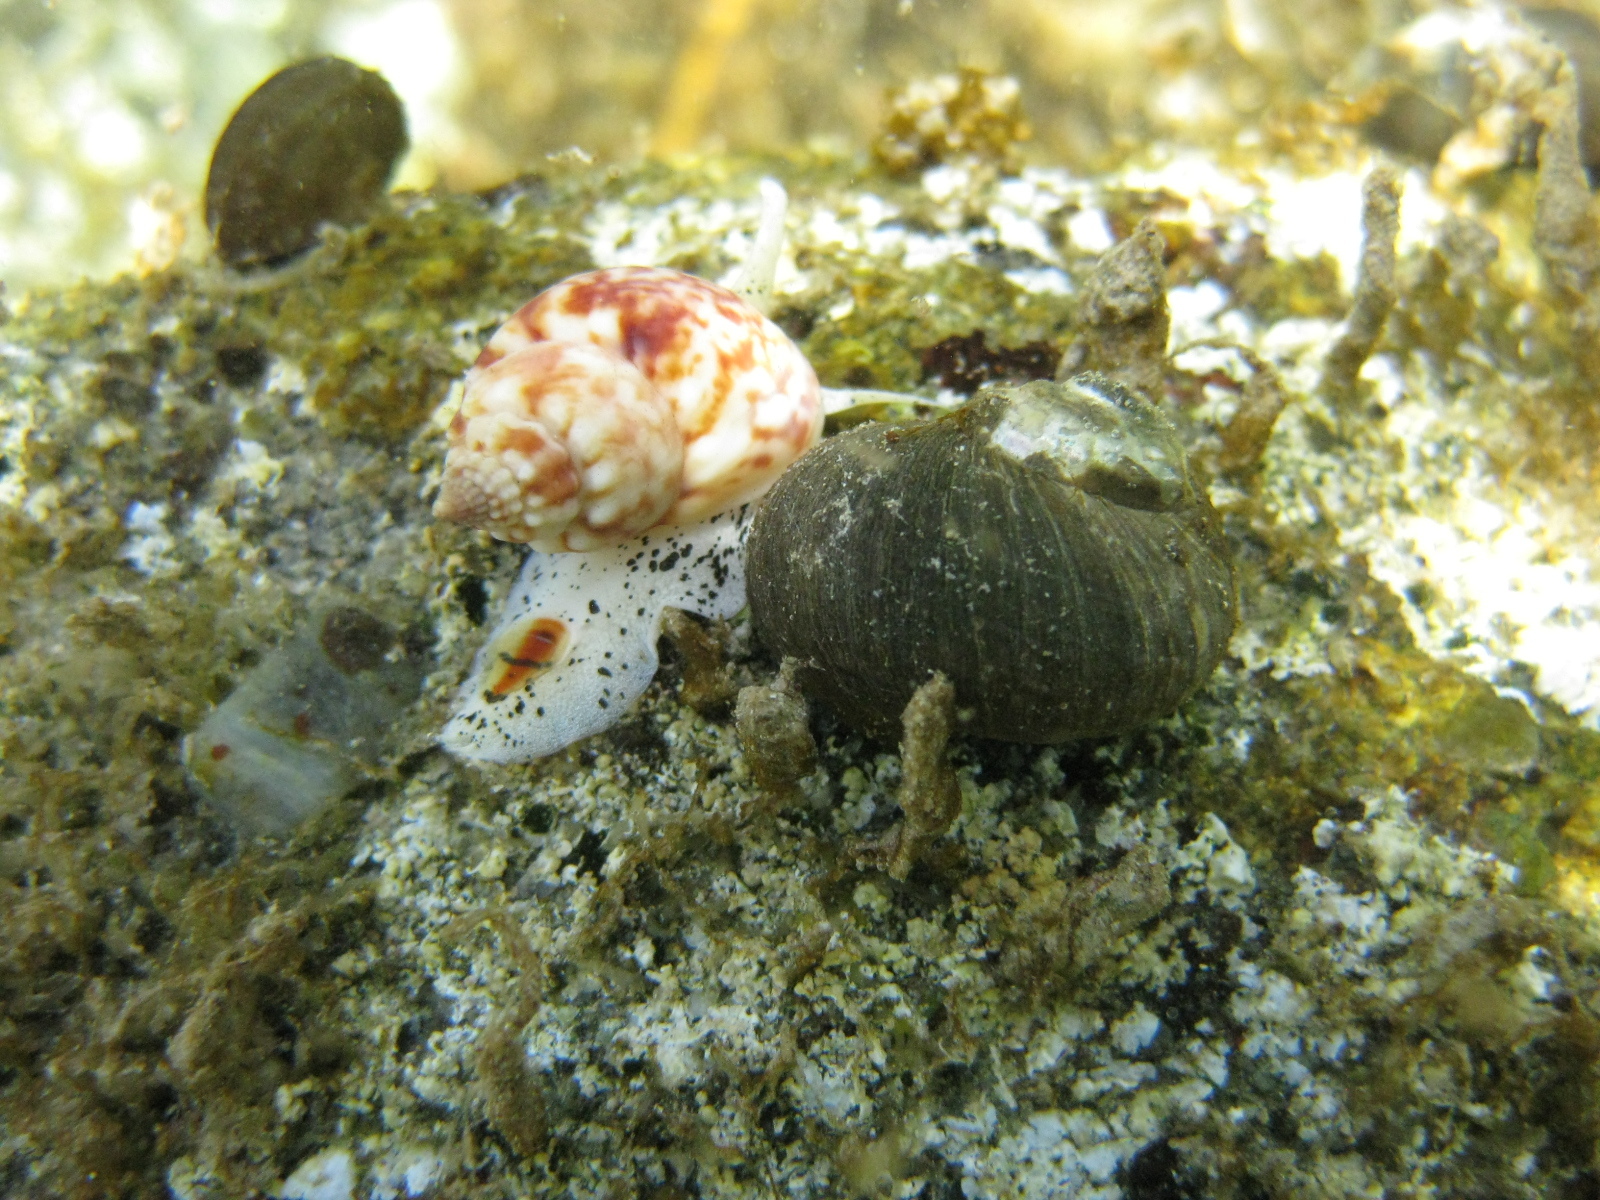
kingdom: Animalia
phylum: Mollusca
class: Gastropoda
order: Trochida
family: Turbinidae
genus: Lunella
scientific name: Lunella smaragda
